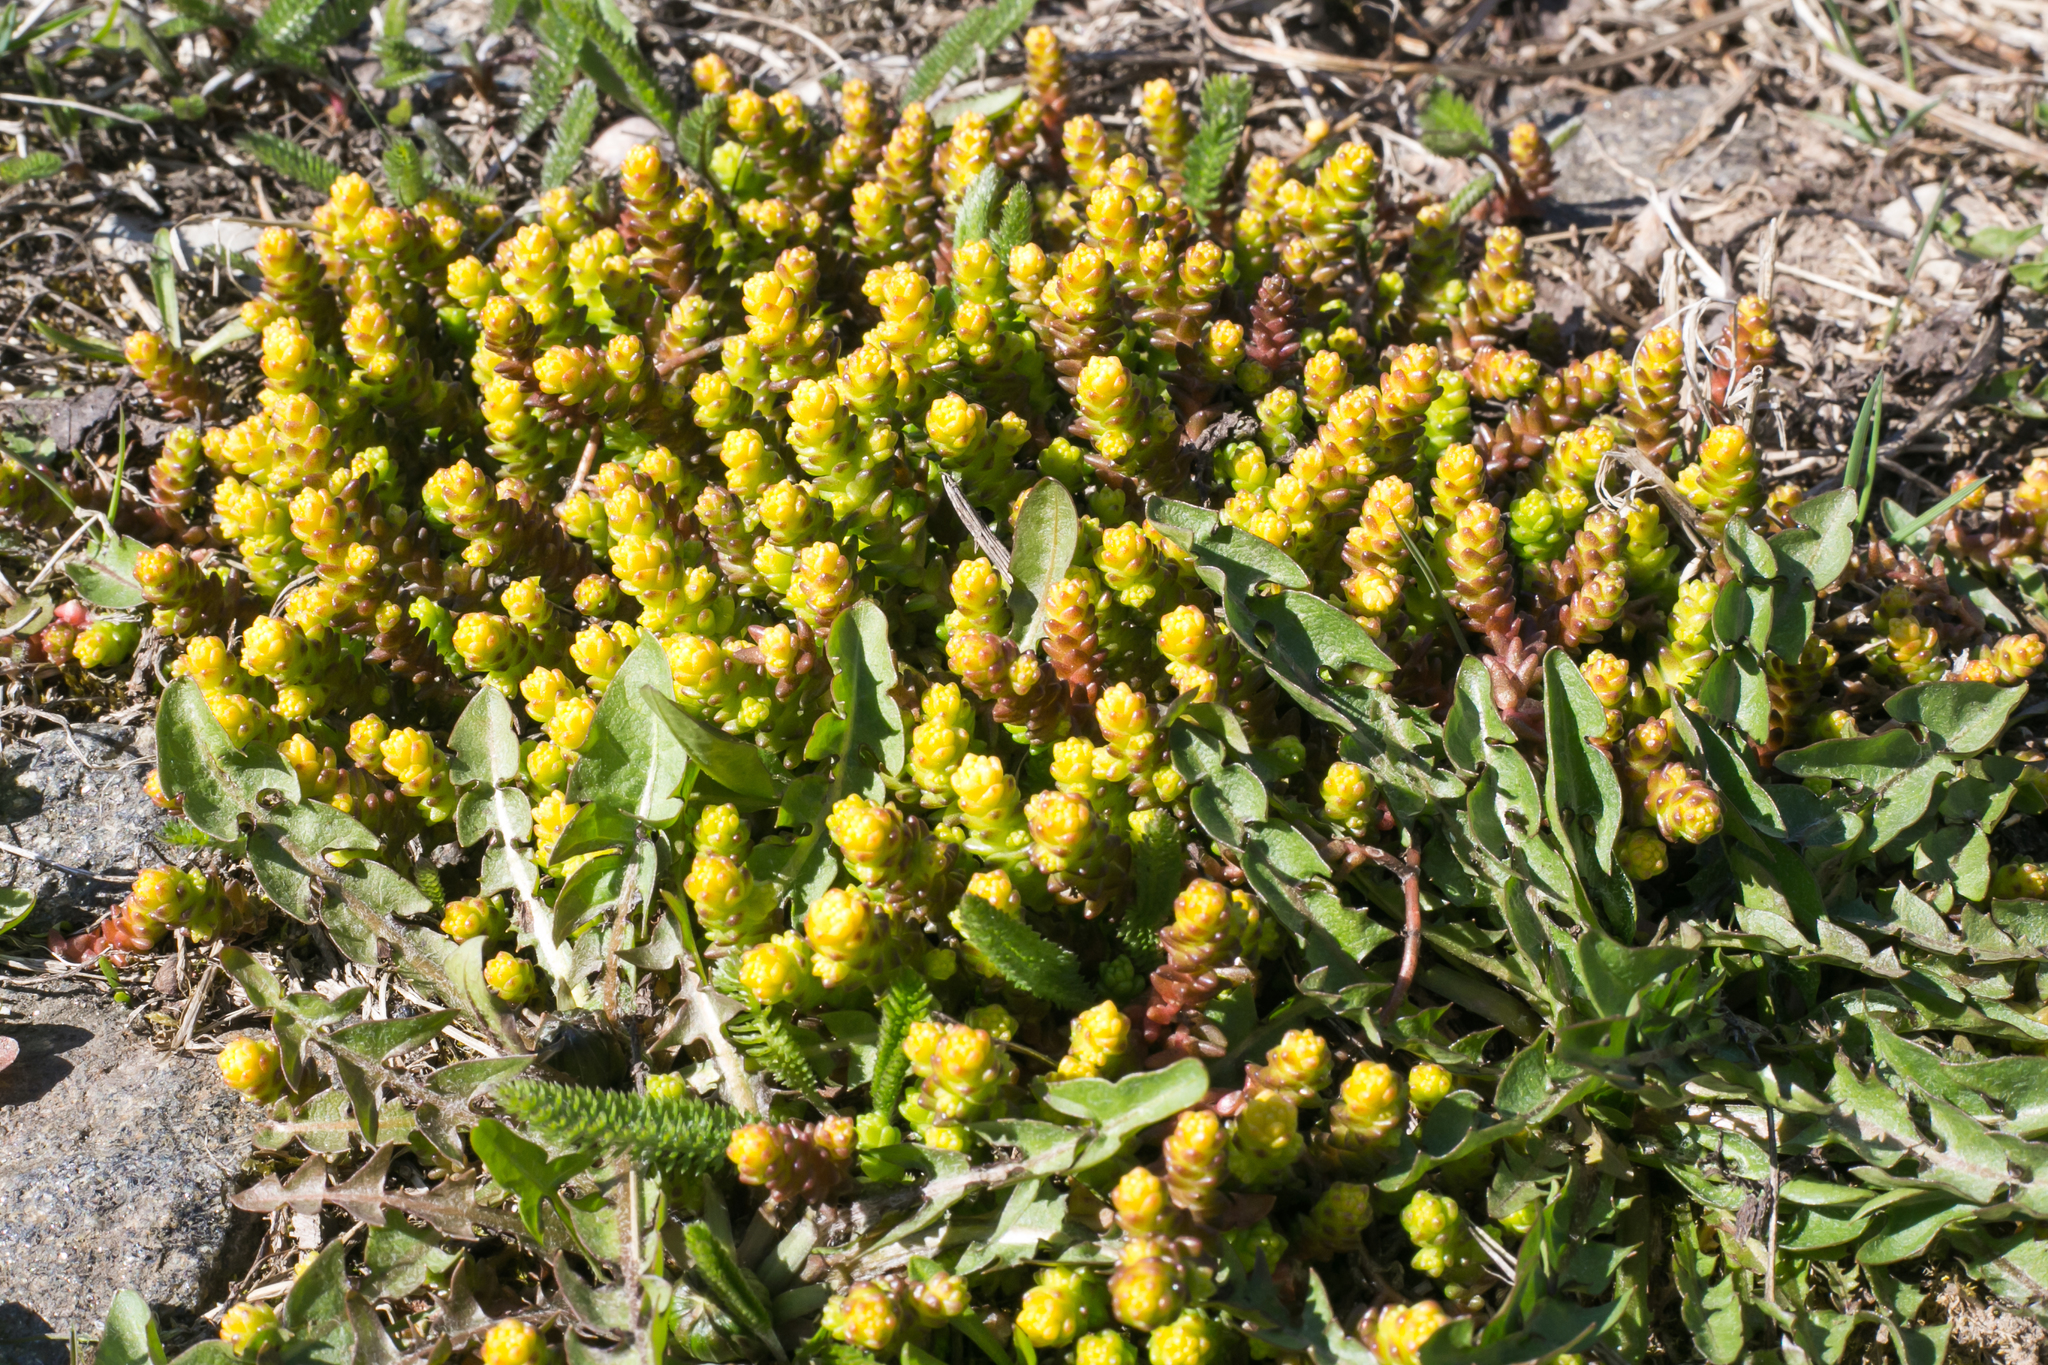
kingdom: Plantae
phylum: Tracheophyta
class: Magnoliopsida
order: Saxifragales
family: Crassulaceae
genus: Sedum
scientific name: Sedum acre
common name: Biting stonecrop
